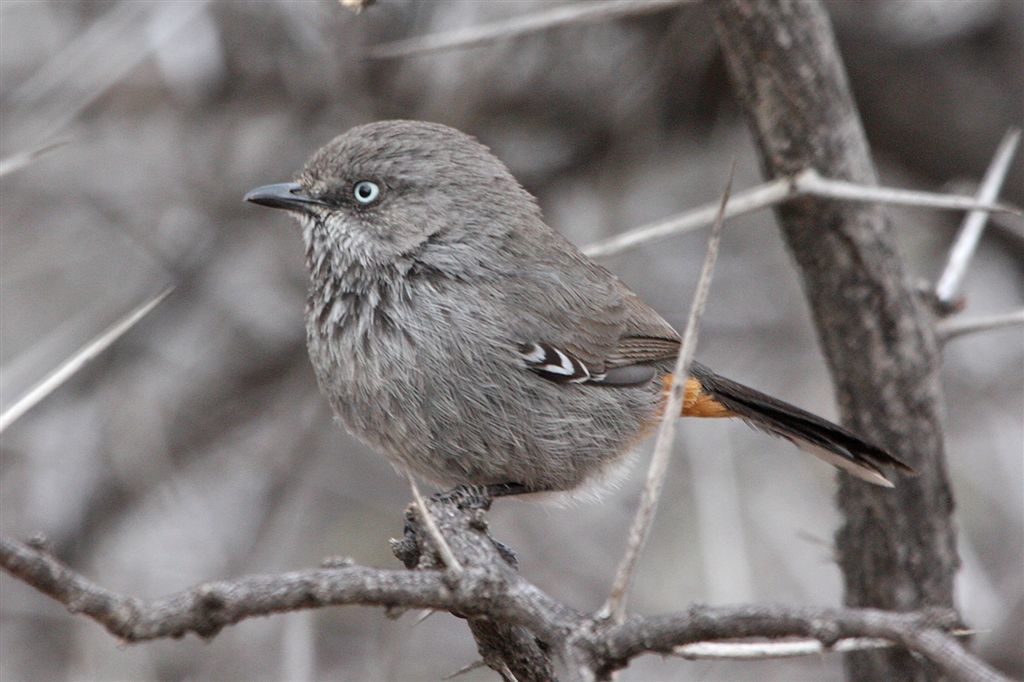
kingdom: Animalia
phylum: Chordata
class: Aves
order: Passeriformes
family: Sylviidae
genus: Curruca
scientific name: Curruca subcoerulea
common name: Chestnut-vented warbler
